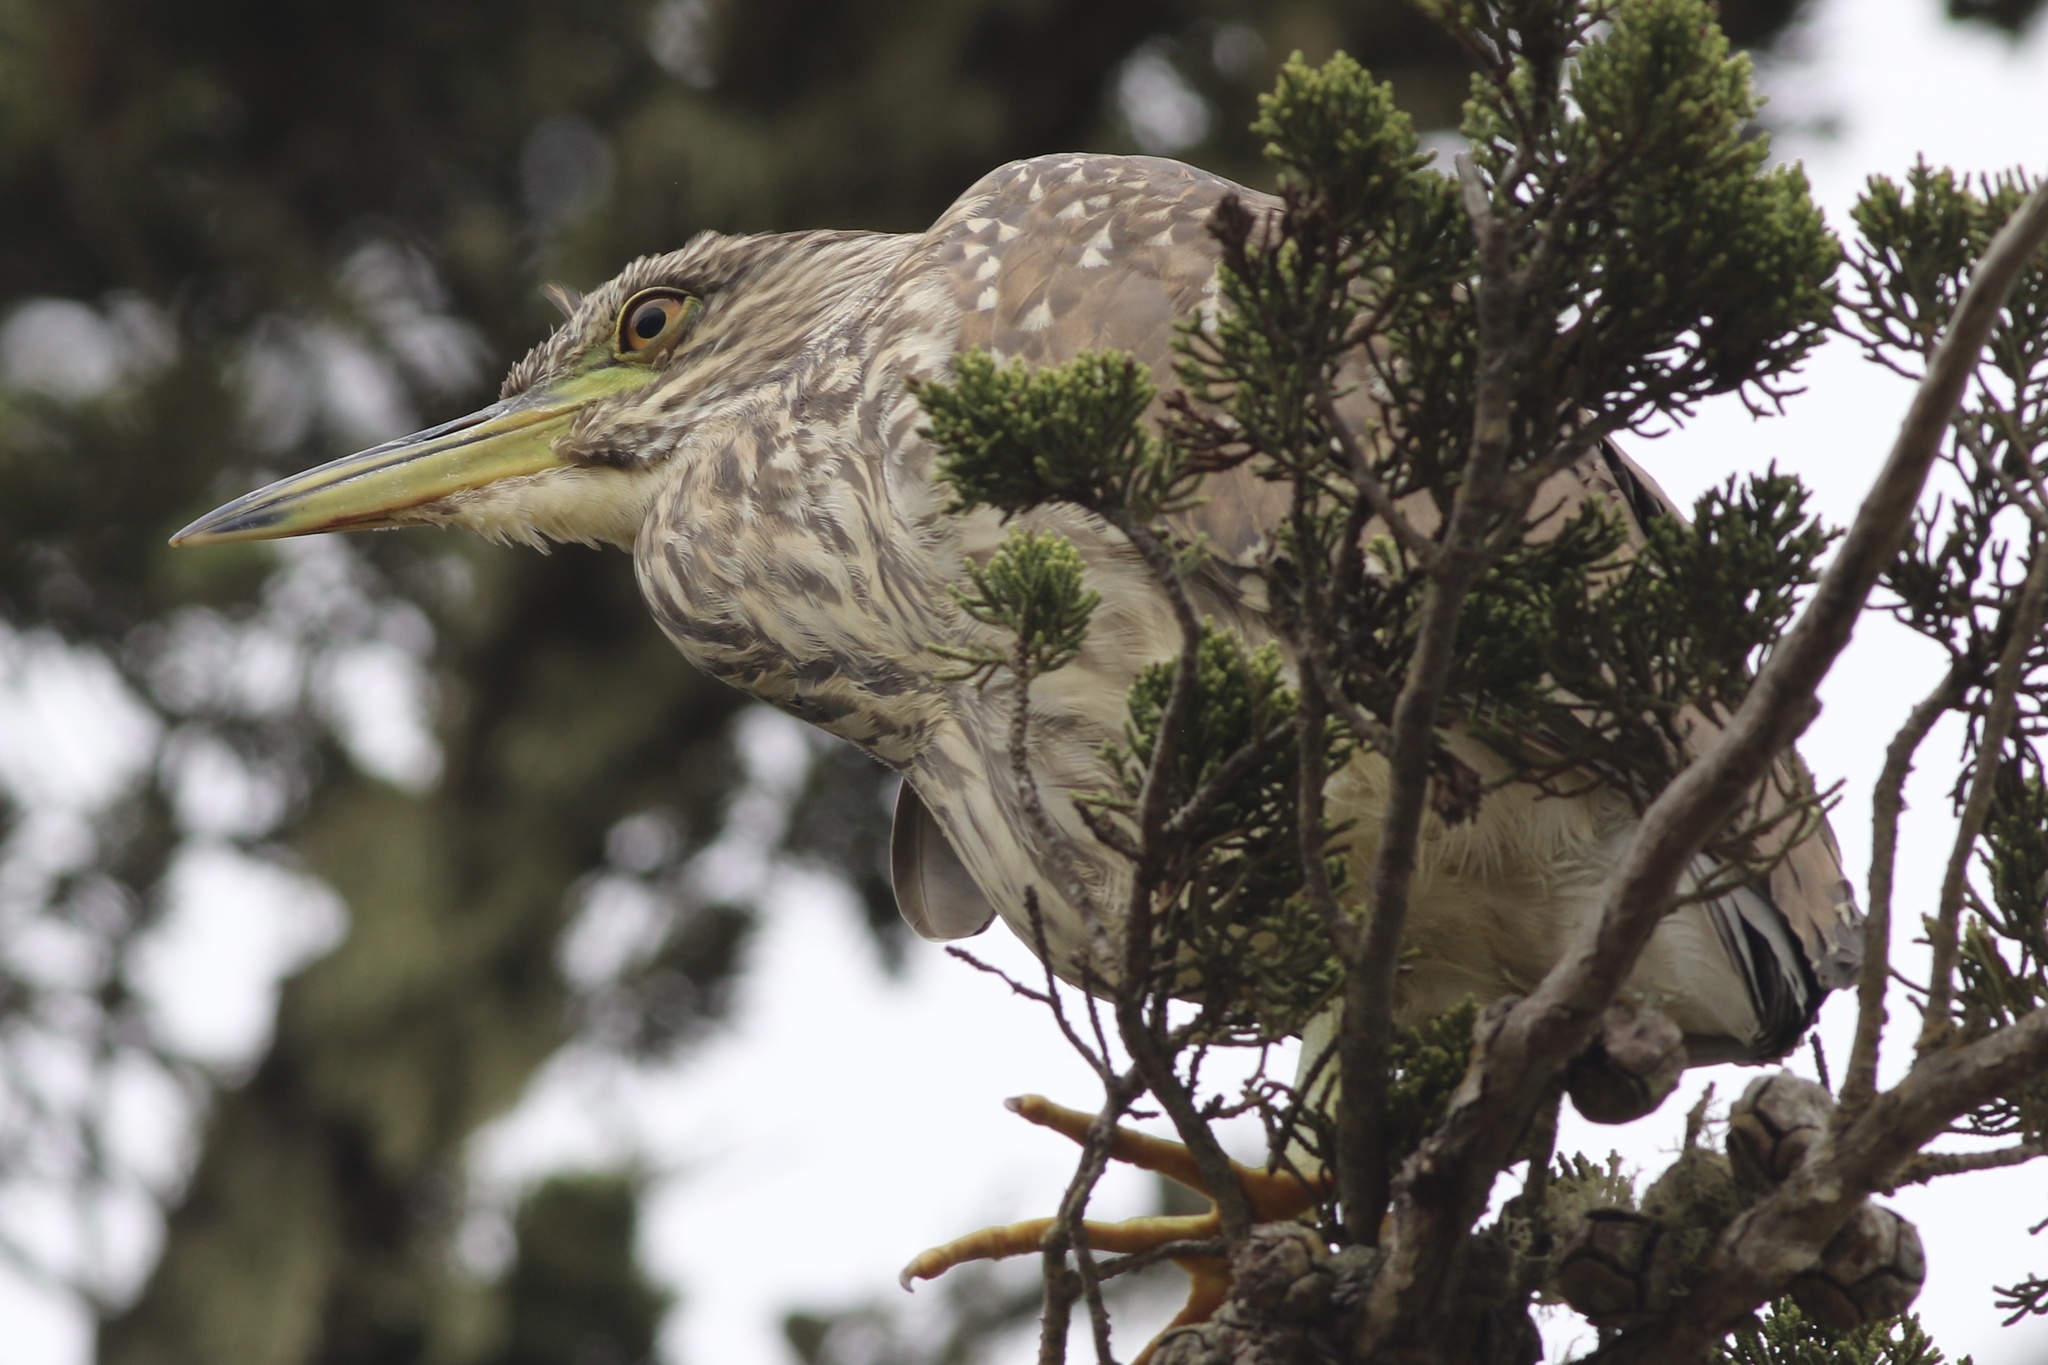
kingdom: Animalia
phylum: Chordata
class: Aves
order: Pelecaniformes
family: Ardeidae
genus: Nycticorax
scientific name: Nycticorax nycticorax
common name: Black-crowned night heron
